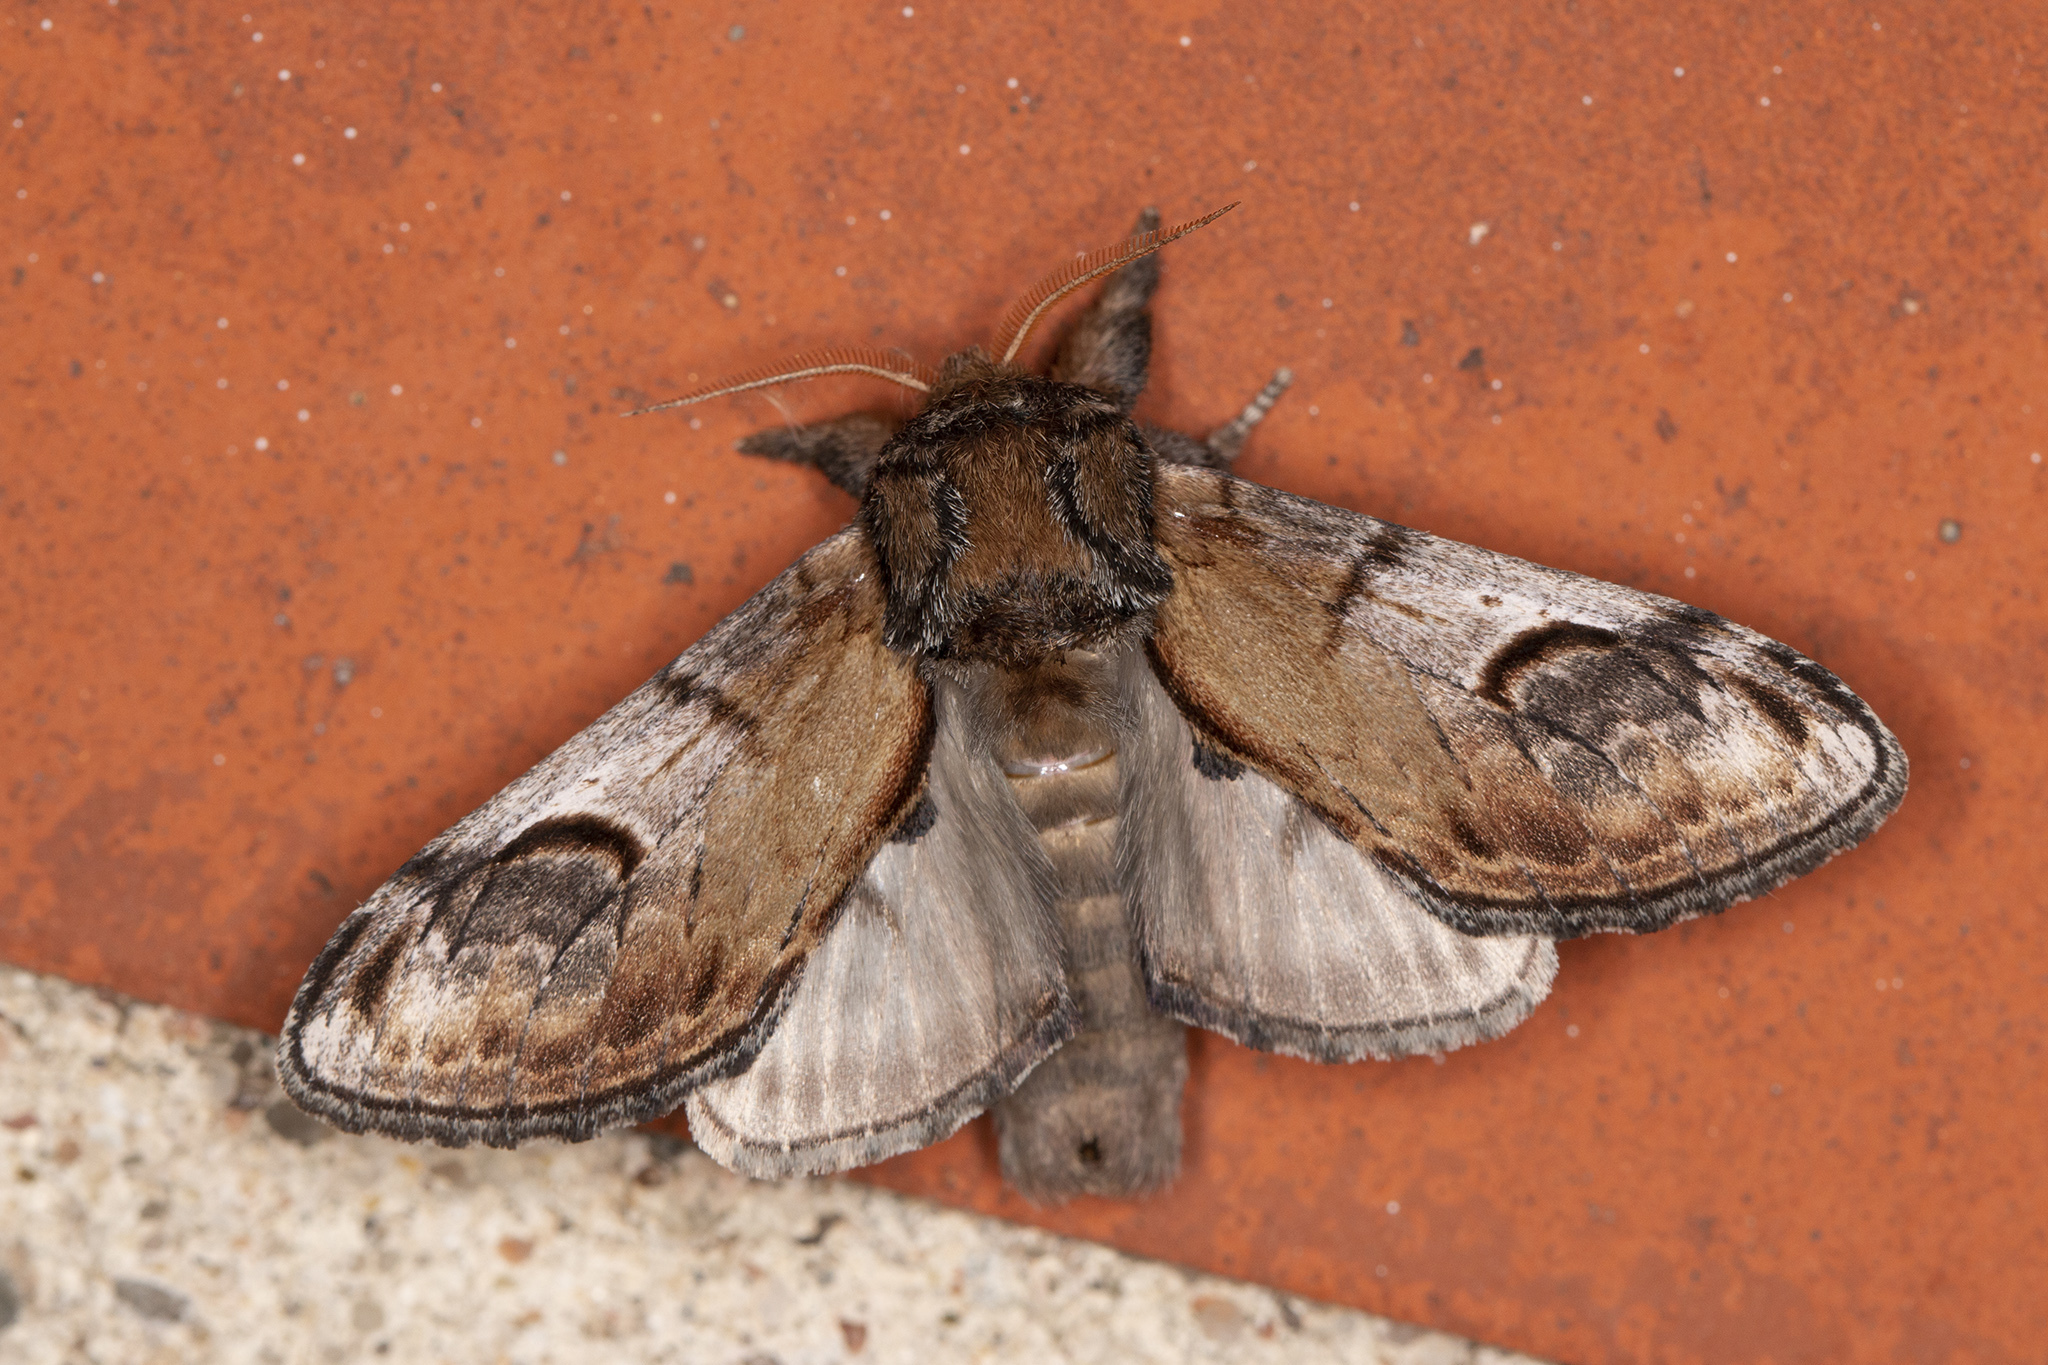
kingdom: Animalia
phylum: Arthropoda
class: Insecta
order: Lepidoptera
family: Notodontidae
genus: Notodonta
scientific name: Notodonta ziczac
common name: Pebble prominent
